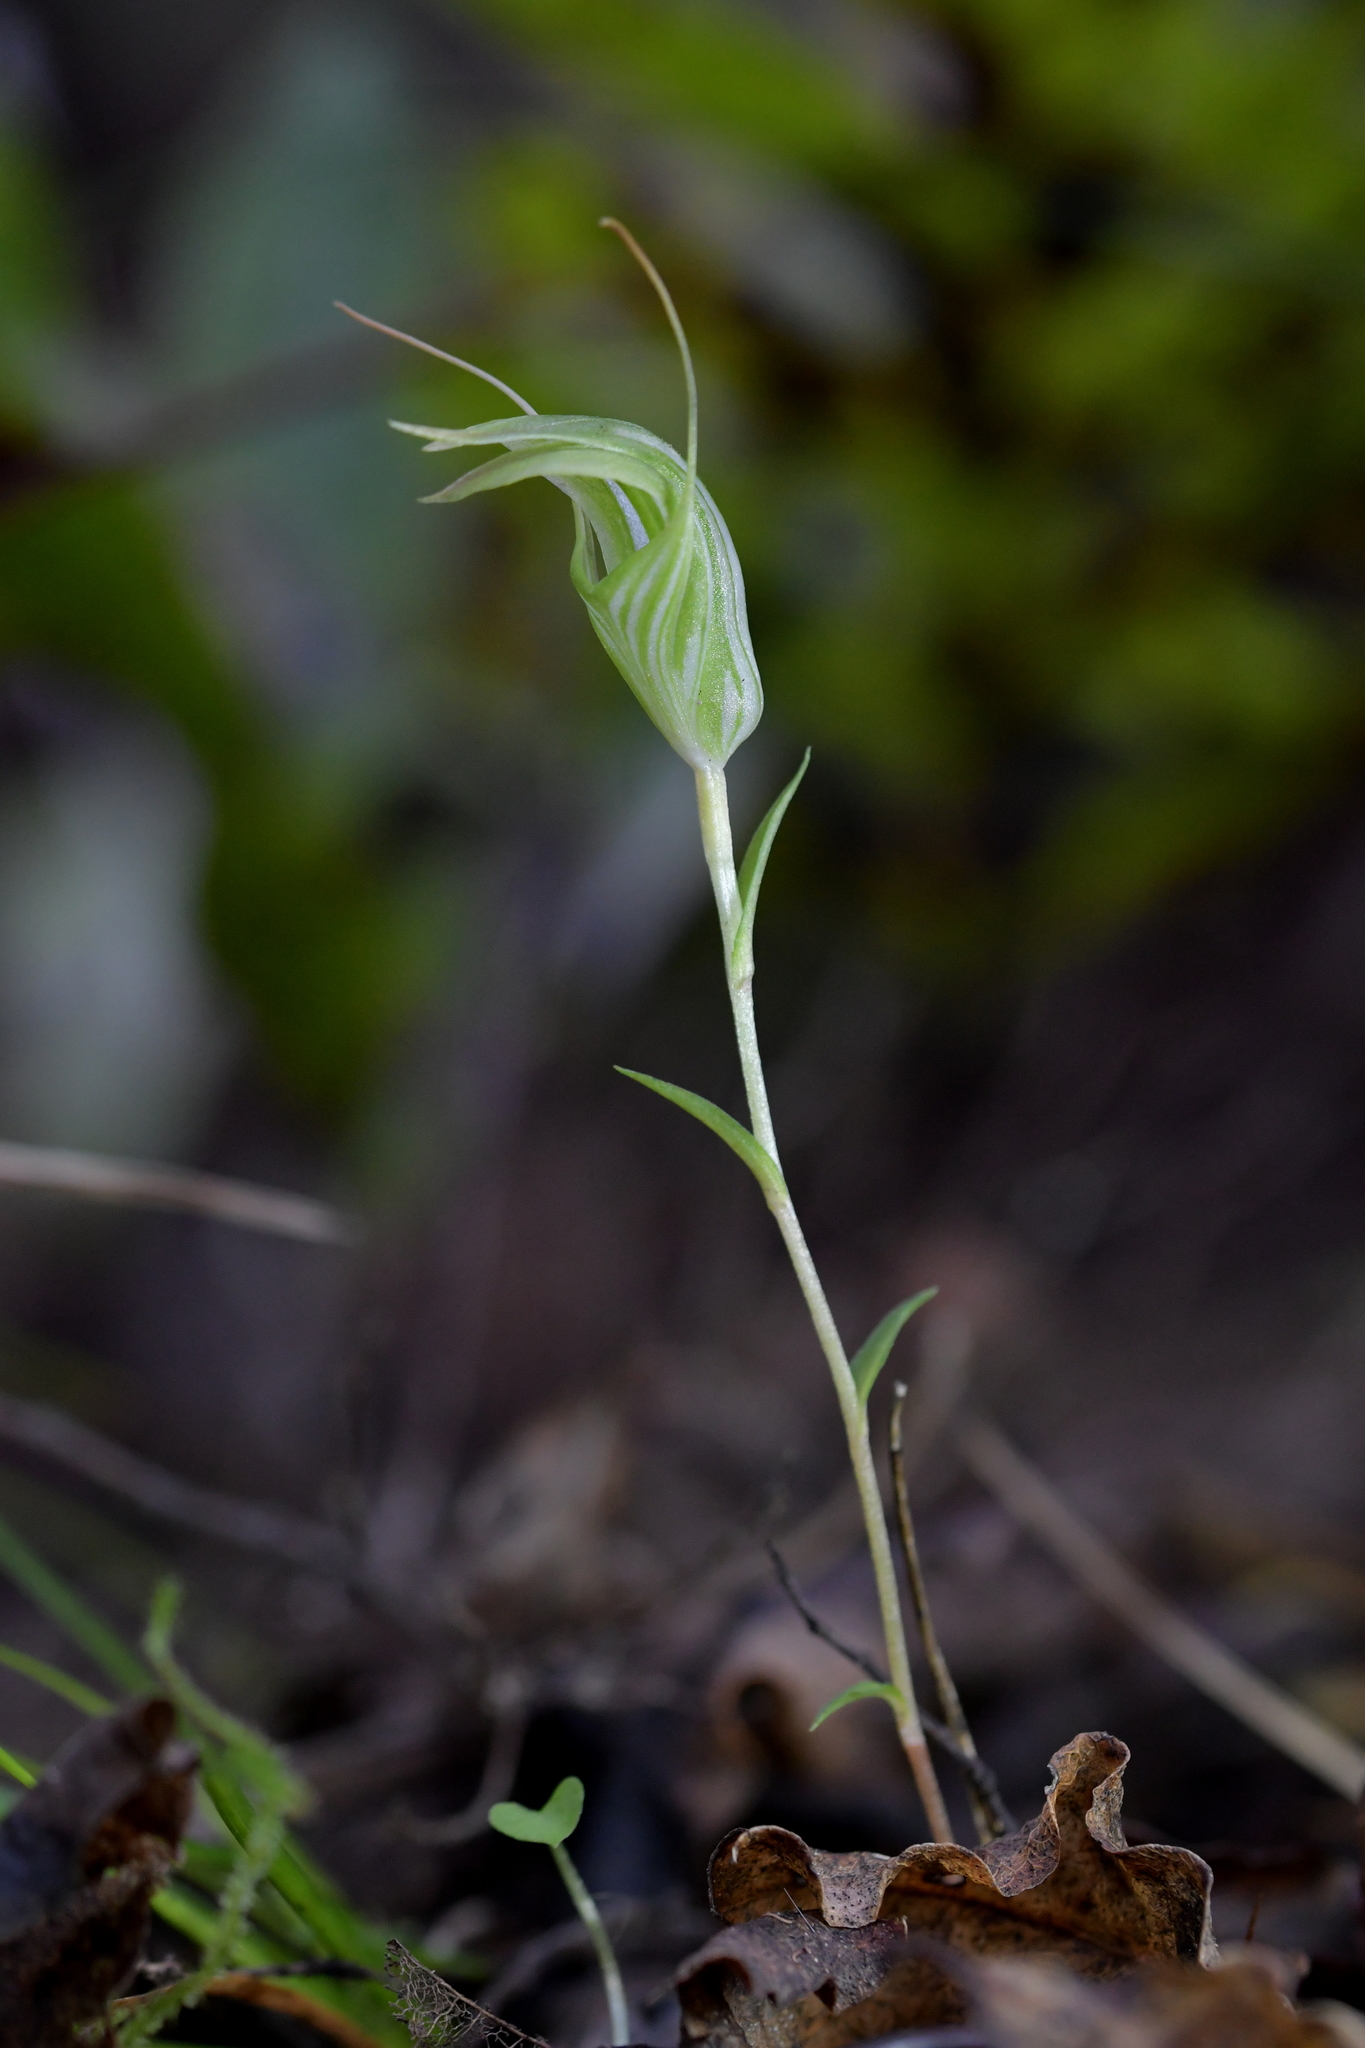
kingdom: Plantae
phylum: Tracheophyta
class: Liliopsida
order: Asparagales
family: Orchidaceae
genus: Pterostylis
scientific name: Pterostylis alobula
